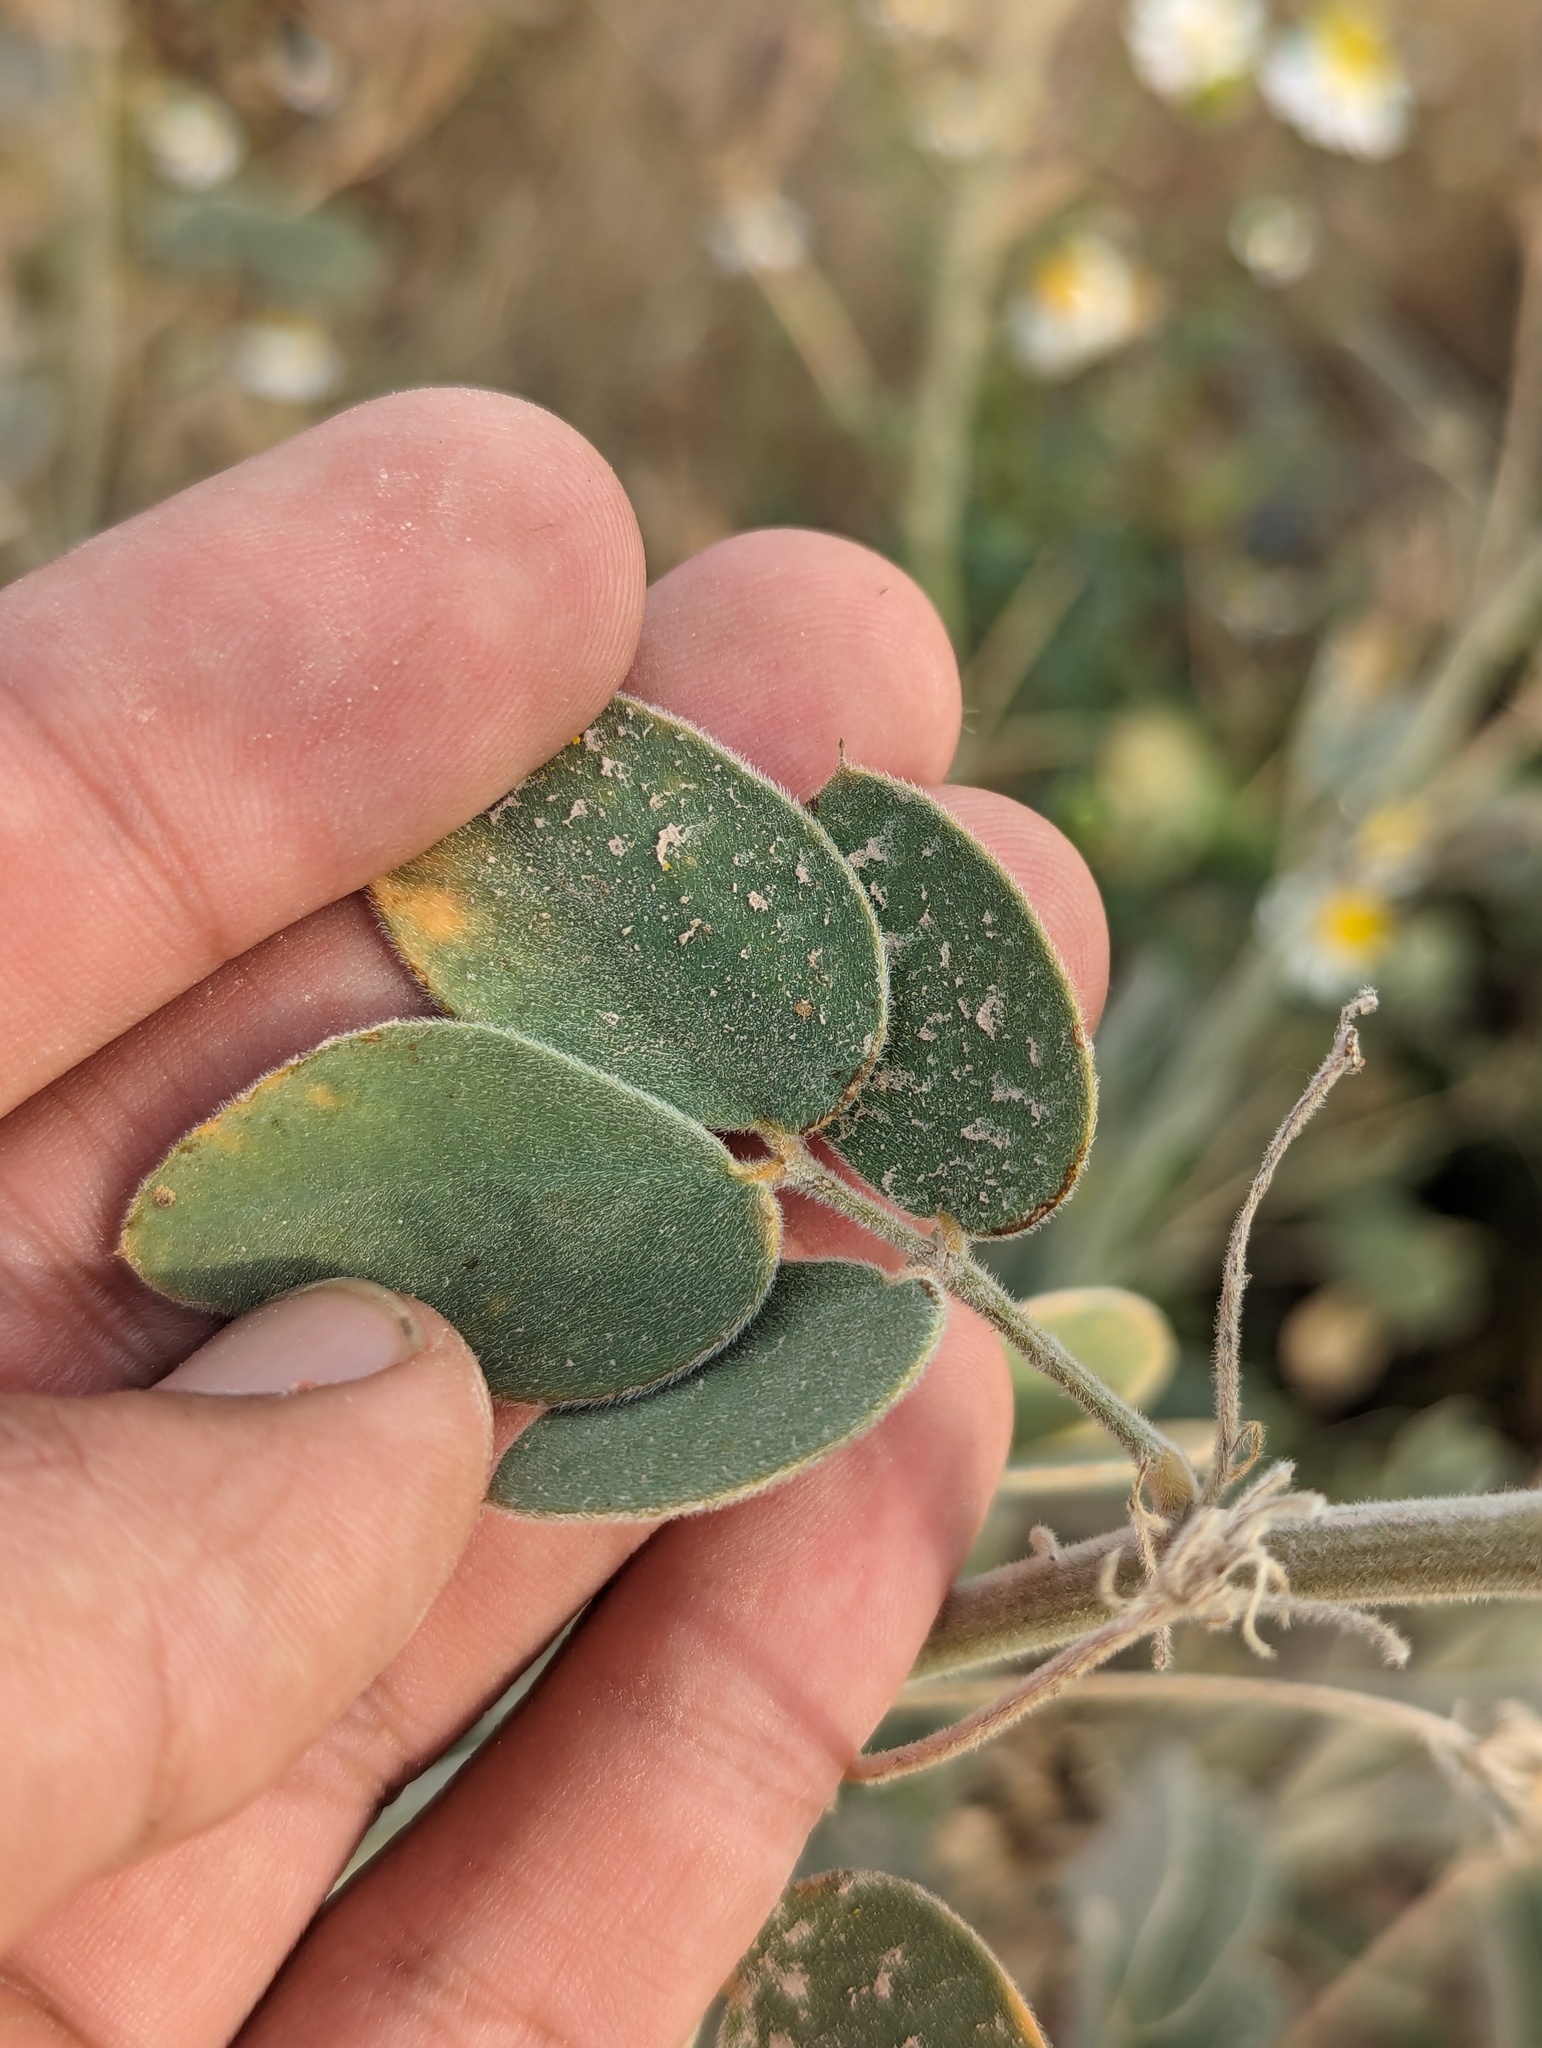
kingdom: Plantae
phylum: Tracheophyta
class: Magnoliopsida
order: Fabales
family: Fabaceae
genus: Senna
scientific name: Senna confinis
